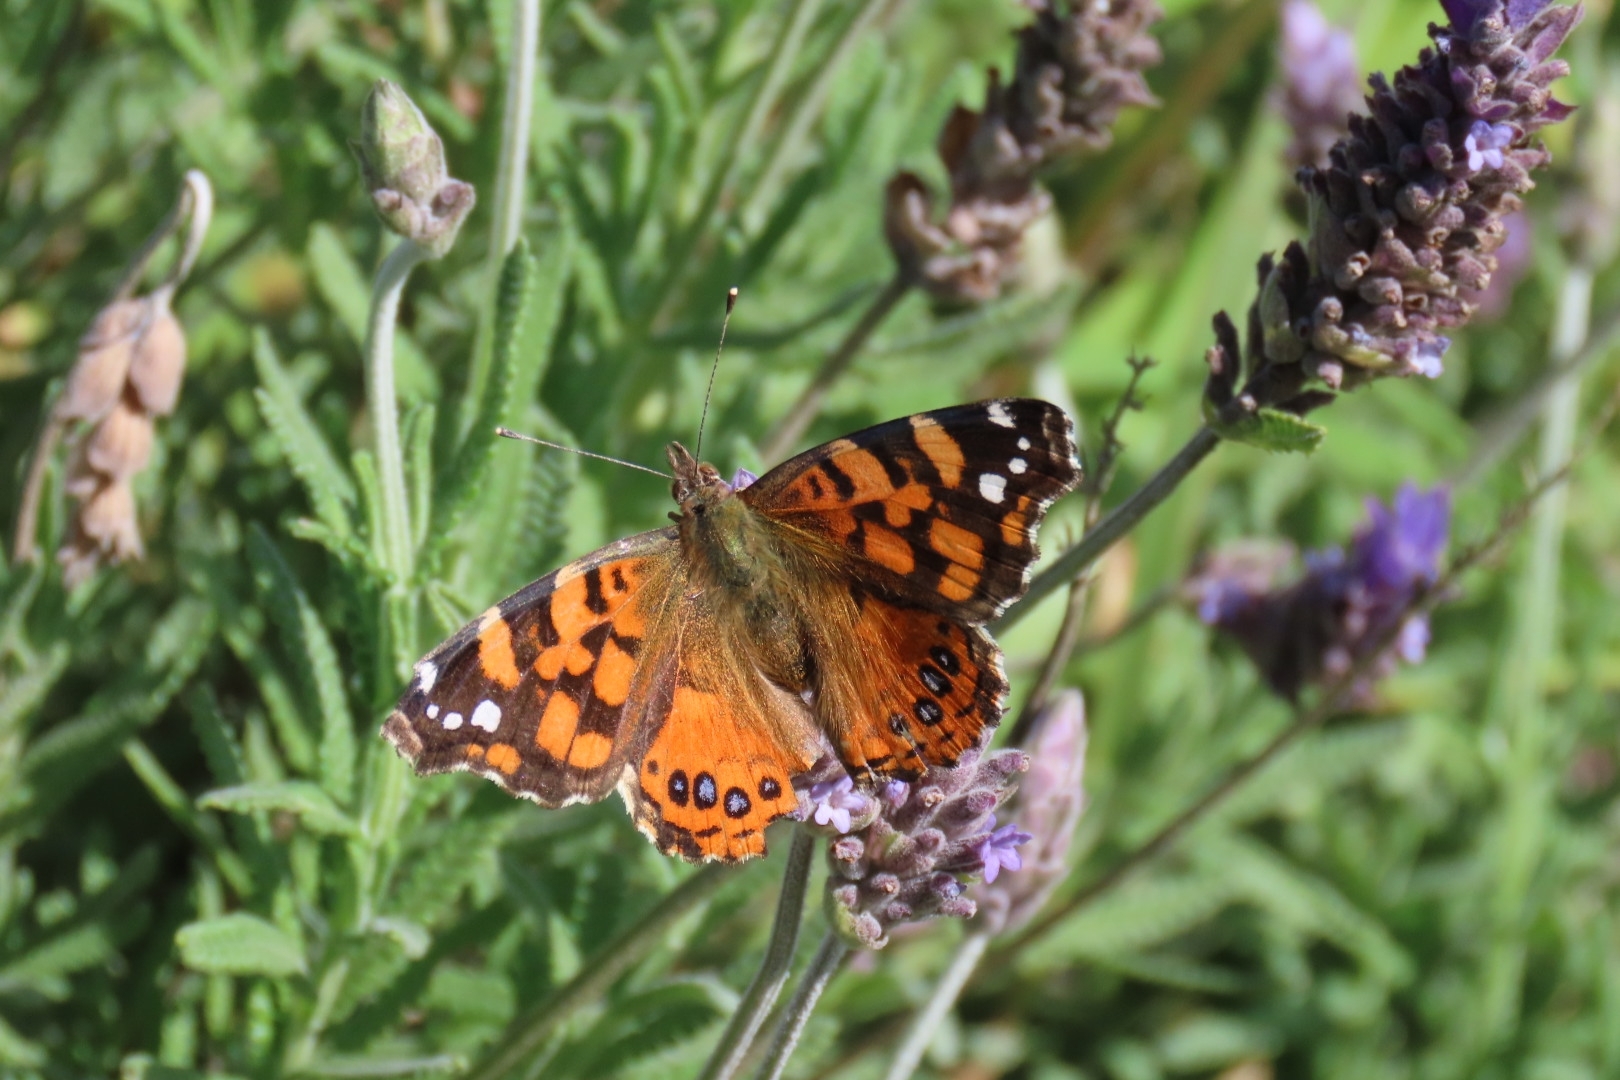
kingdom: Animalia
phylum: Arthropoda
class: Insecta
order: Lepidoptera
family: Nymphalidae
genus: Vanessa
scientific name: Vanessa carye
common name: Subtropical lady
